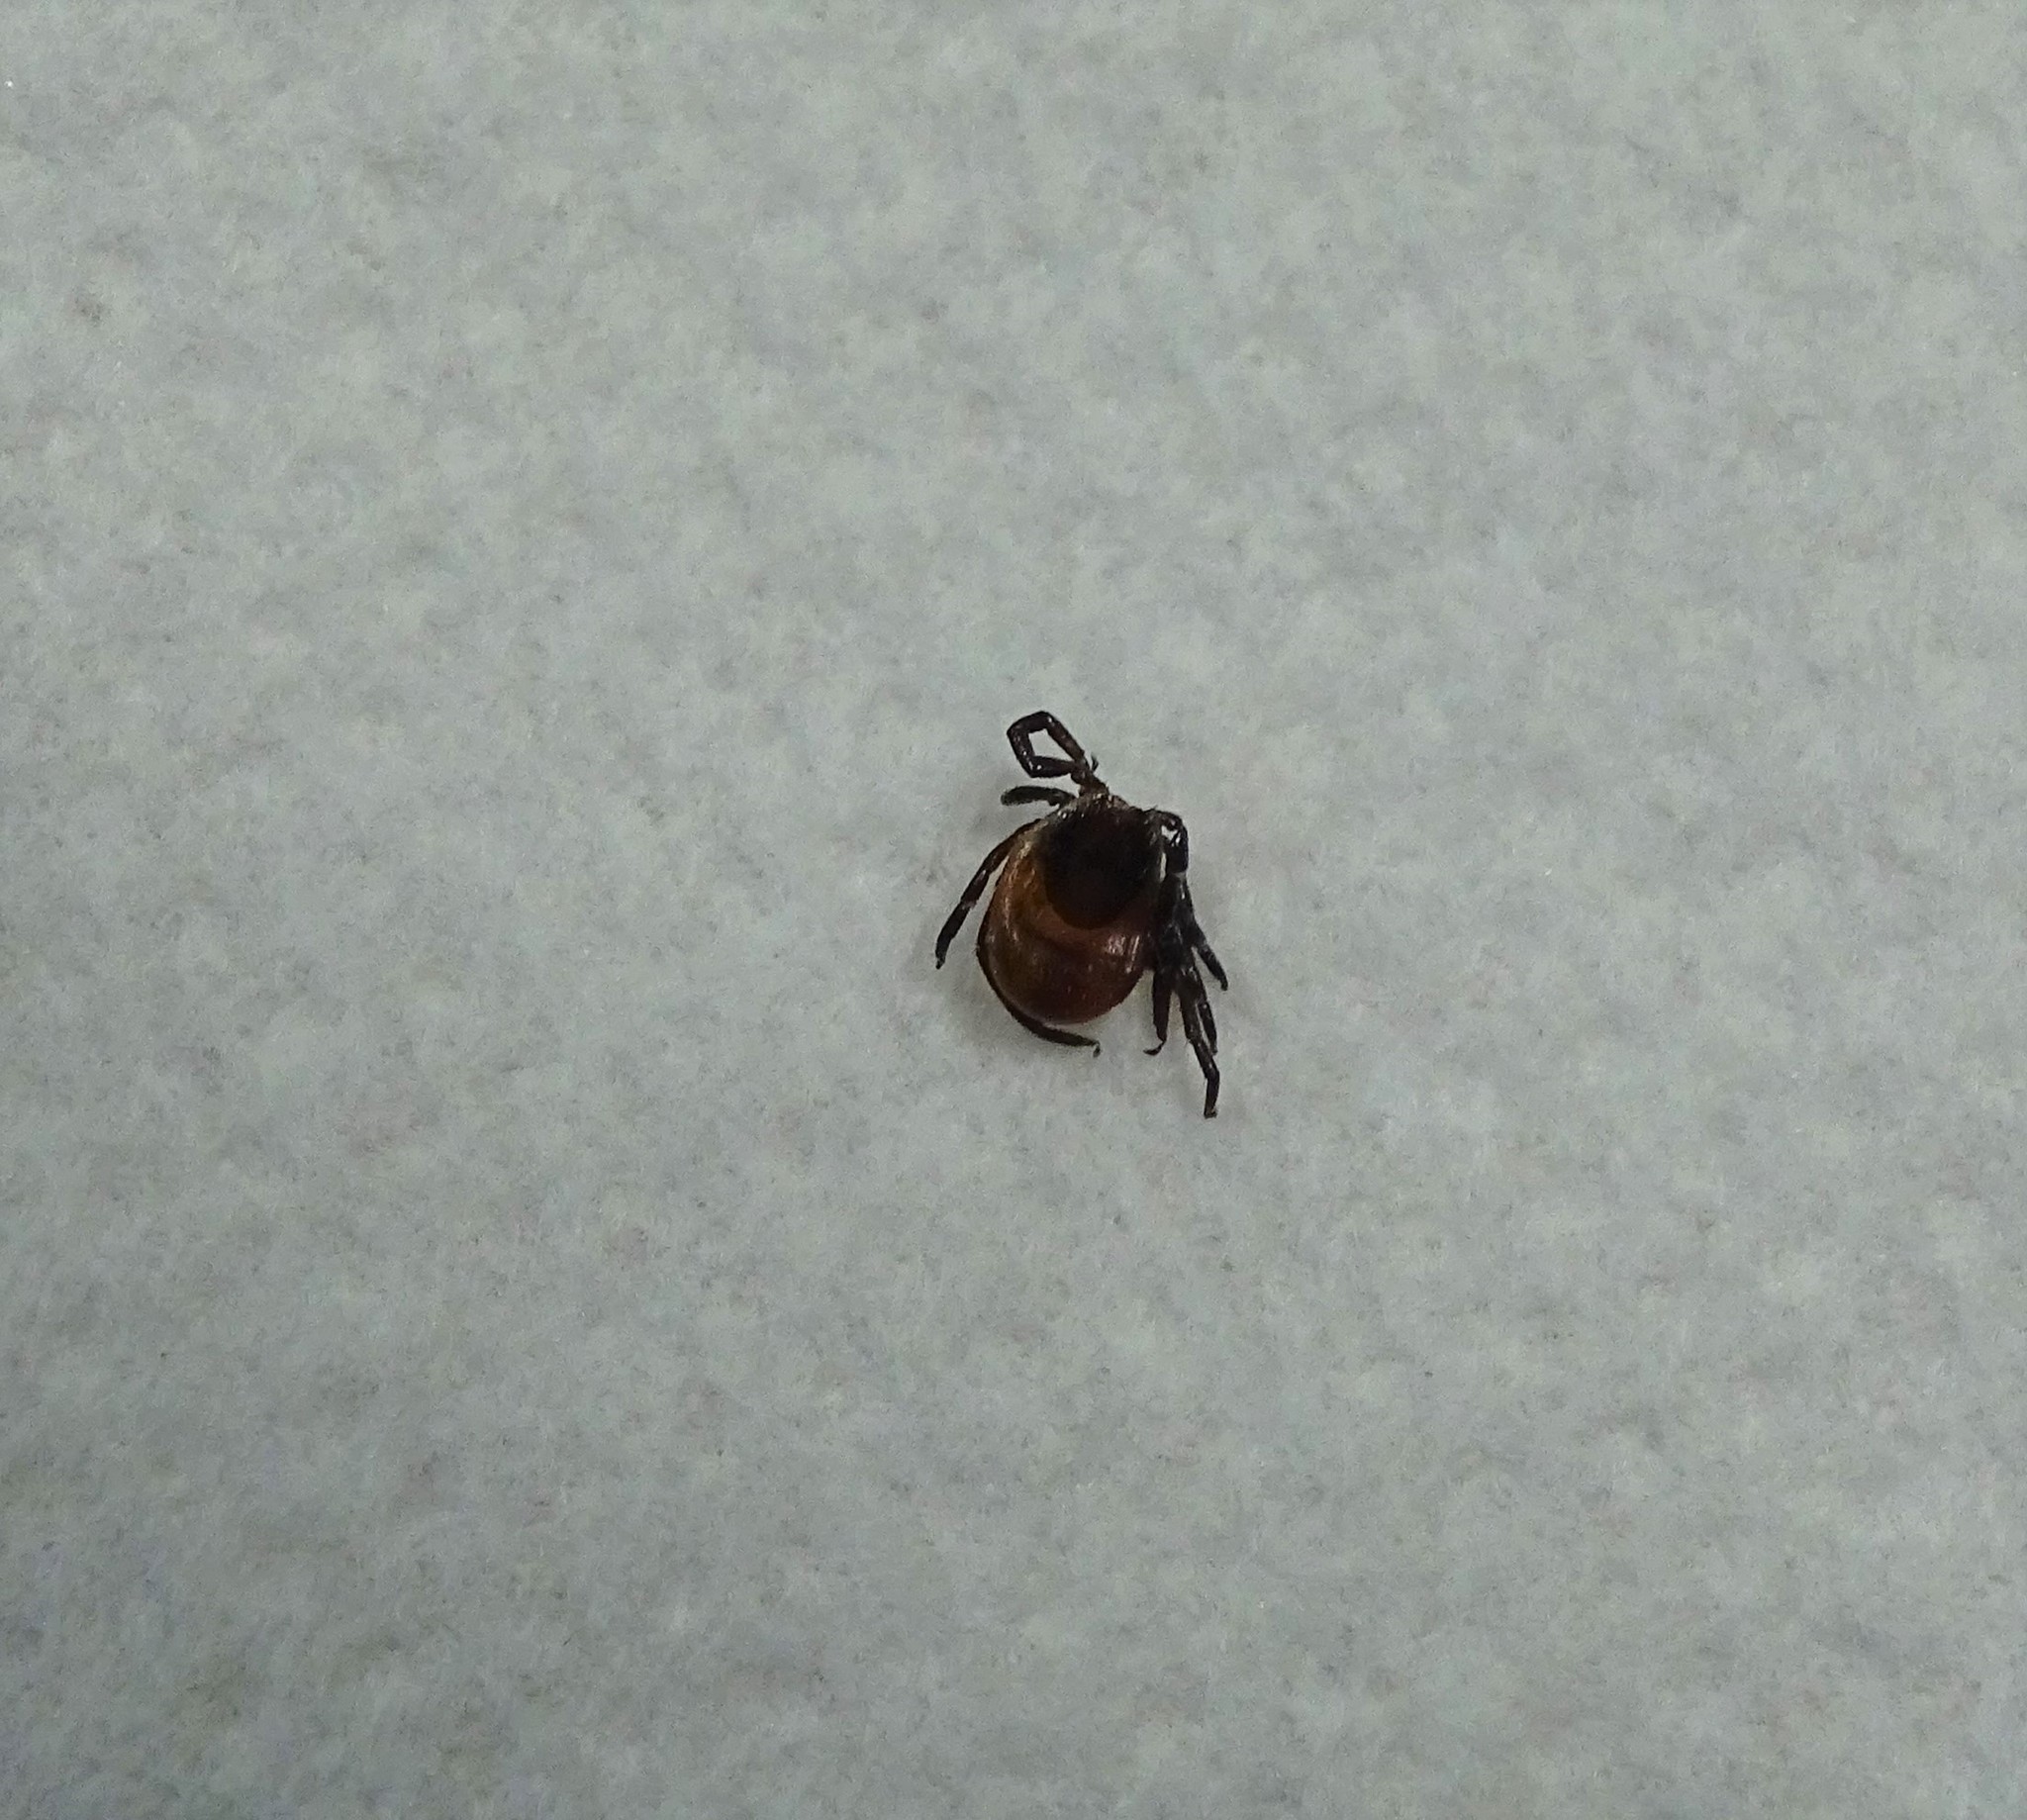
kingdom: Animalia
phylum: Arthropoda
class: Arachnida
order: Ixodida
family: Ixodidae
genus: Ixodes
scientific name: Ixodes scapularis
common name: Black legged tick
